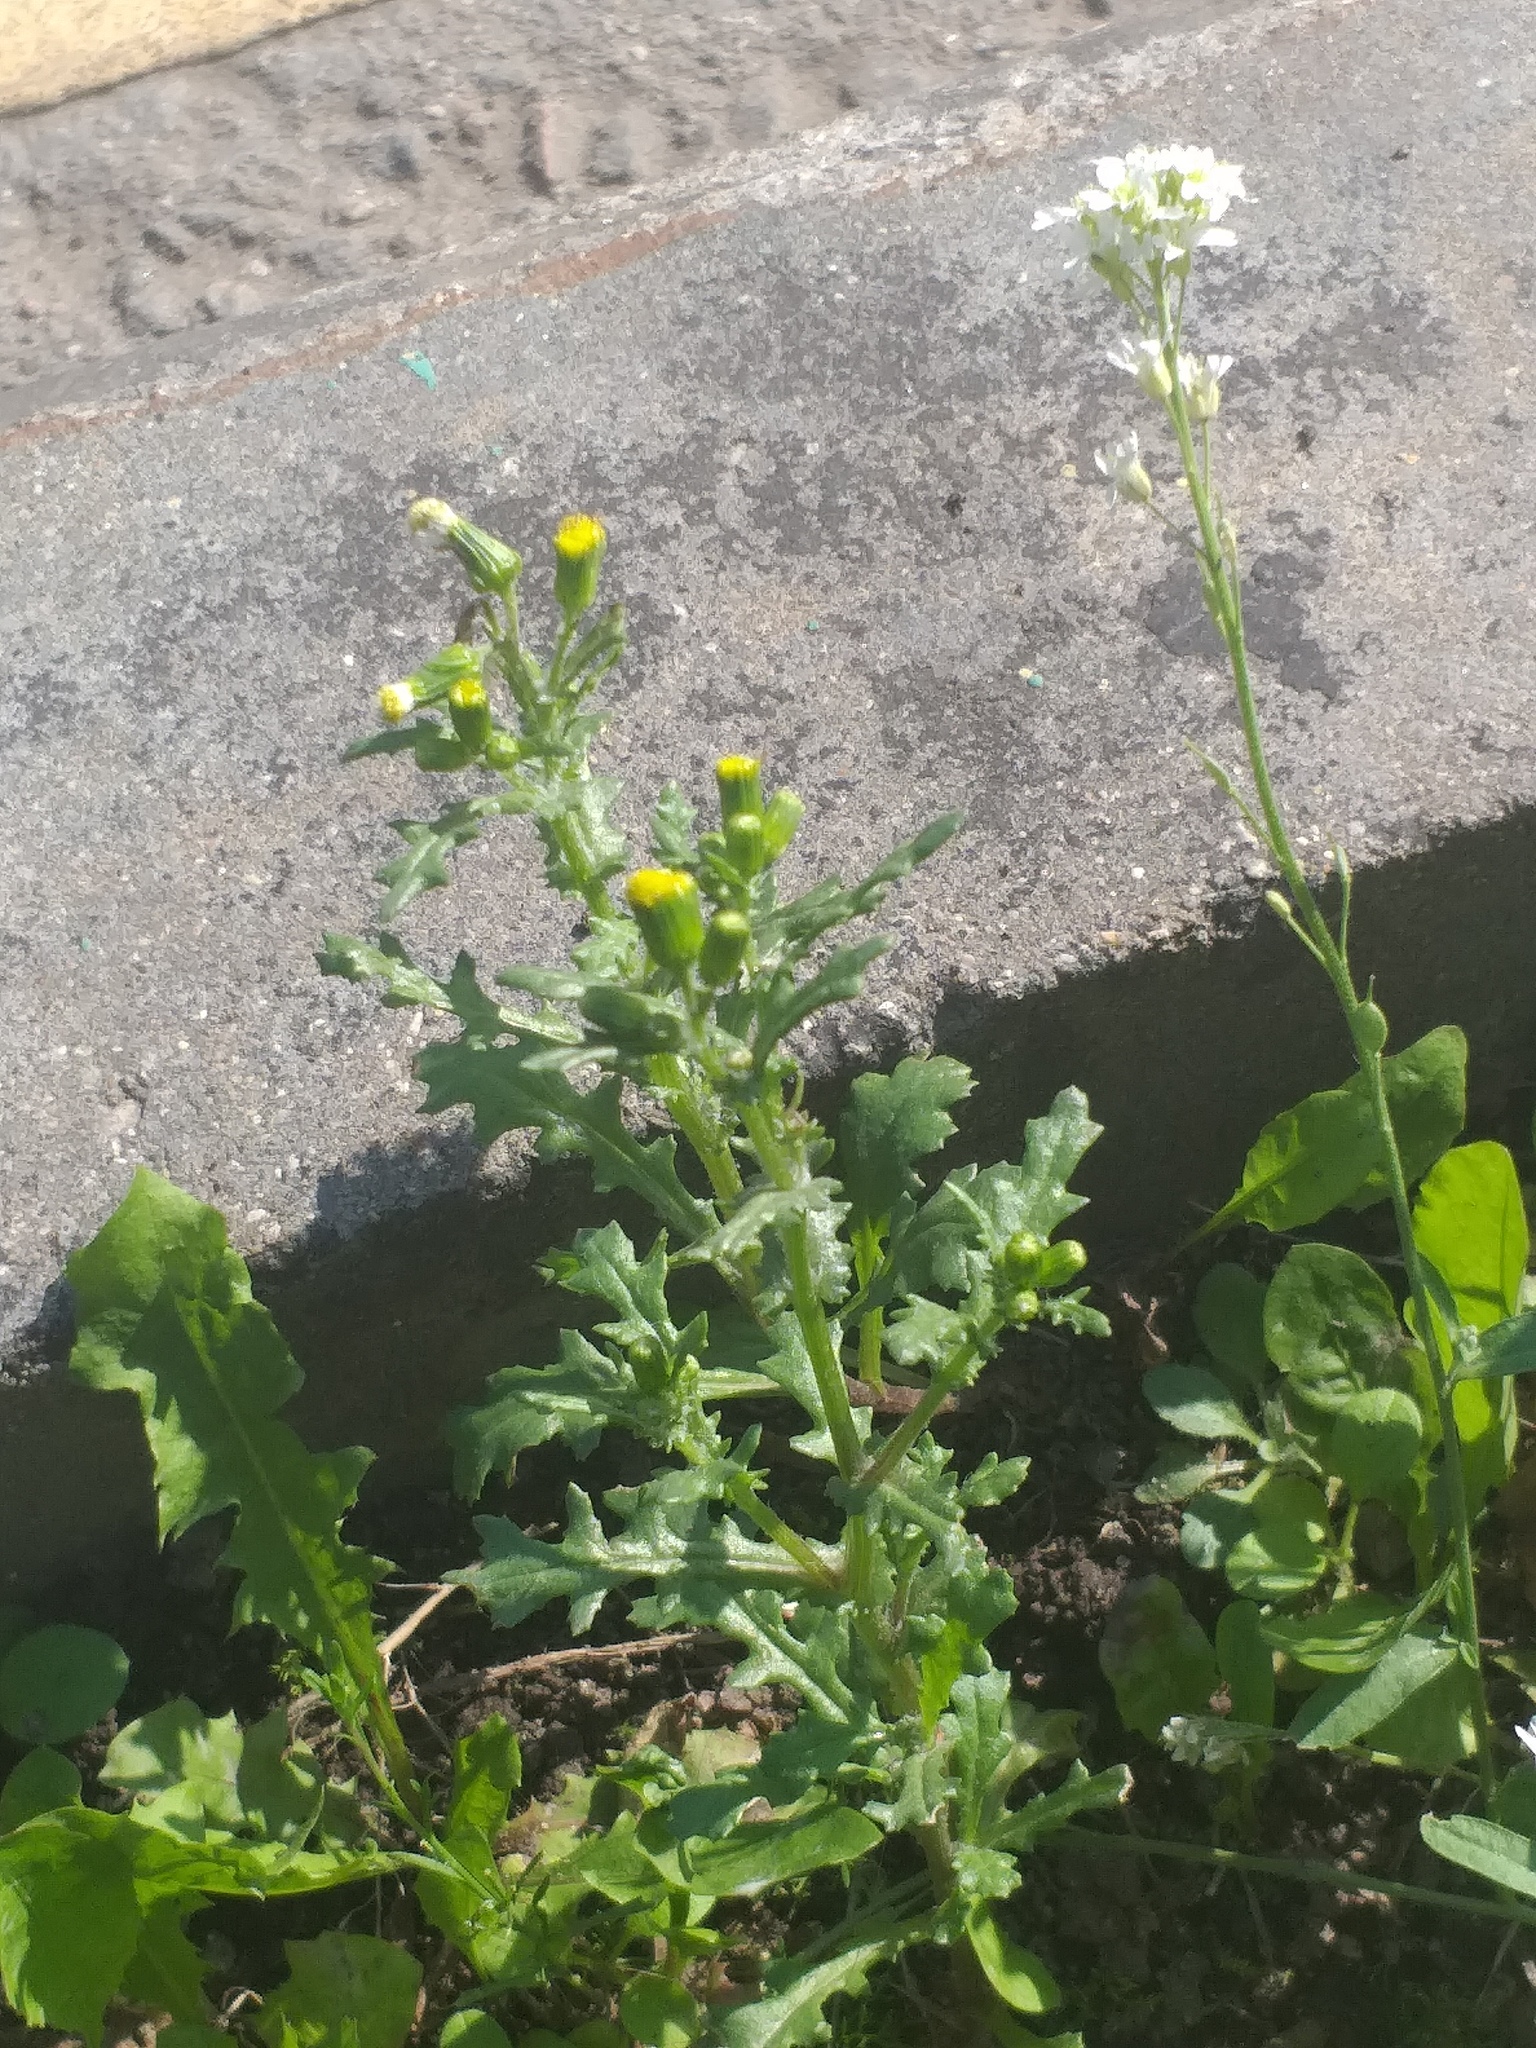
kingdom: Plantae
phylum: Tracheophyta
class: Magnoliopsida
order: Asterales
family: Asteraceae
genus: Senecio
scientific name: Senecio vulgaris
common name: Old-man-in-the-spring
